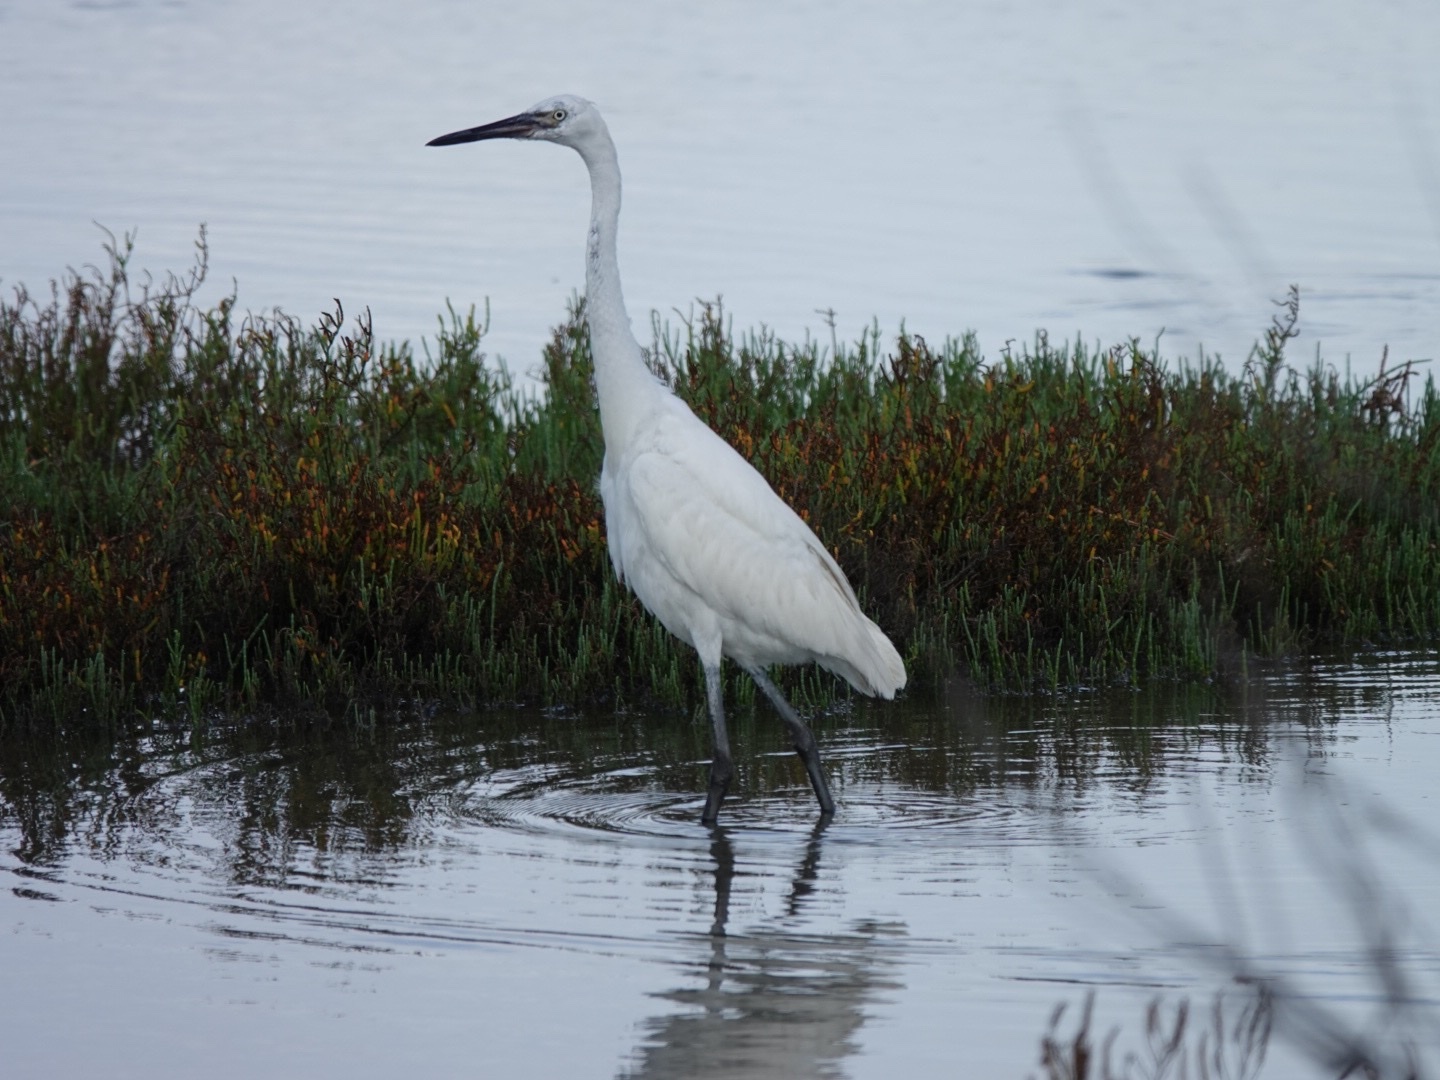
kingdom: Animalia
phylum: Chordata
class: Aves
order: Pelecaniformes
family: Ardeidae
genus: Egretta
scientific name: Egretta rufescens
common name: Reddish egret
